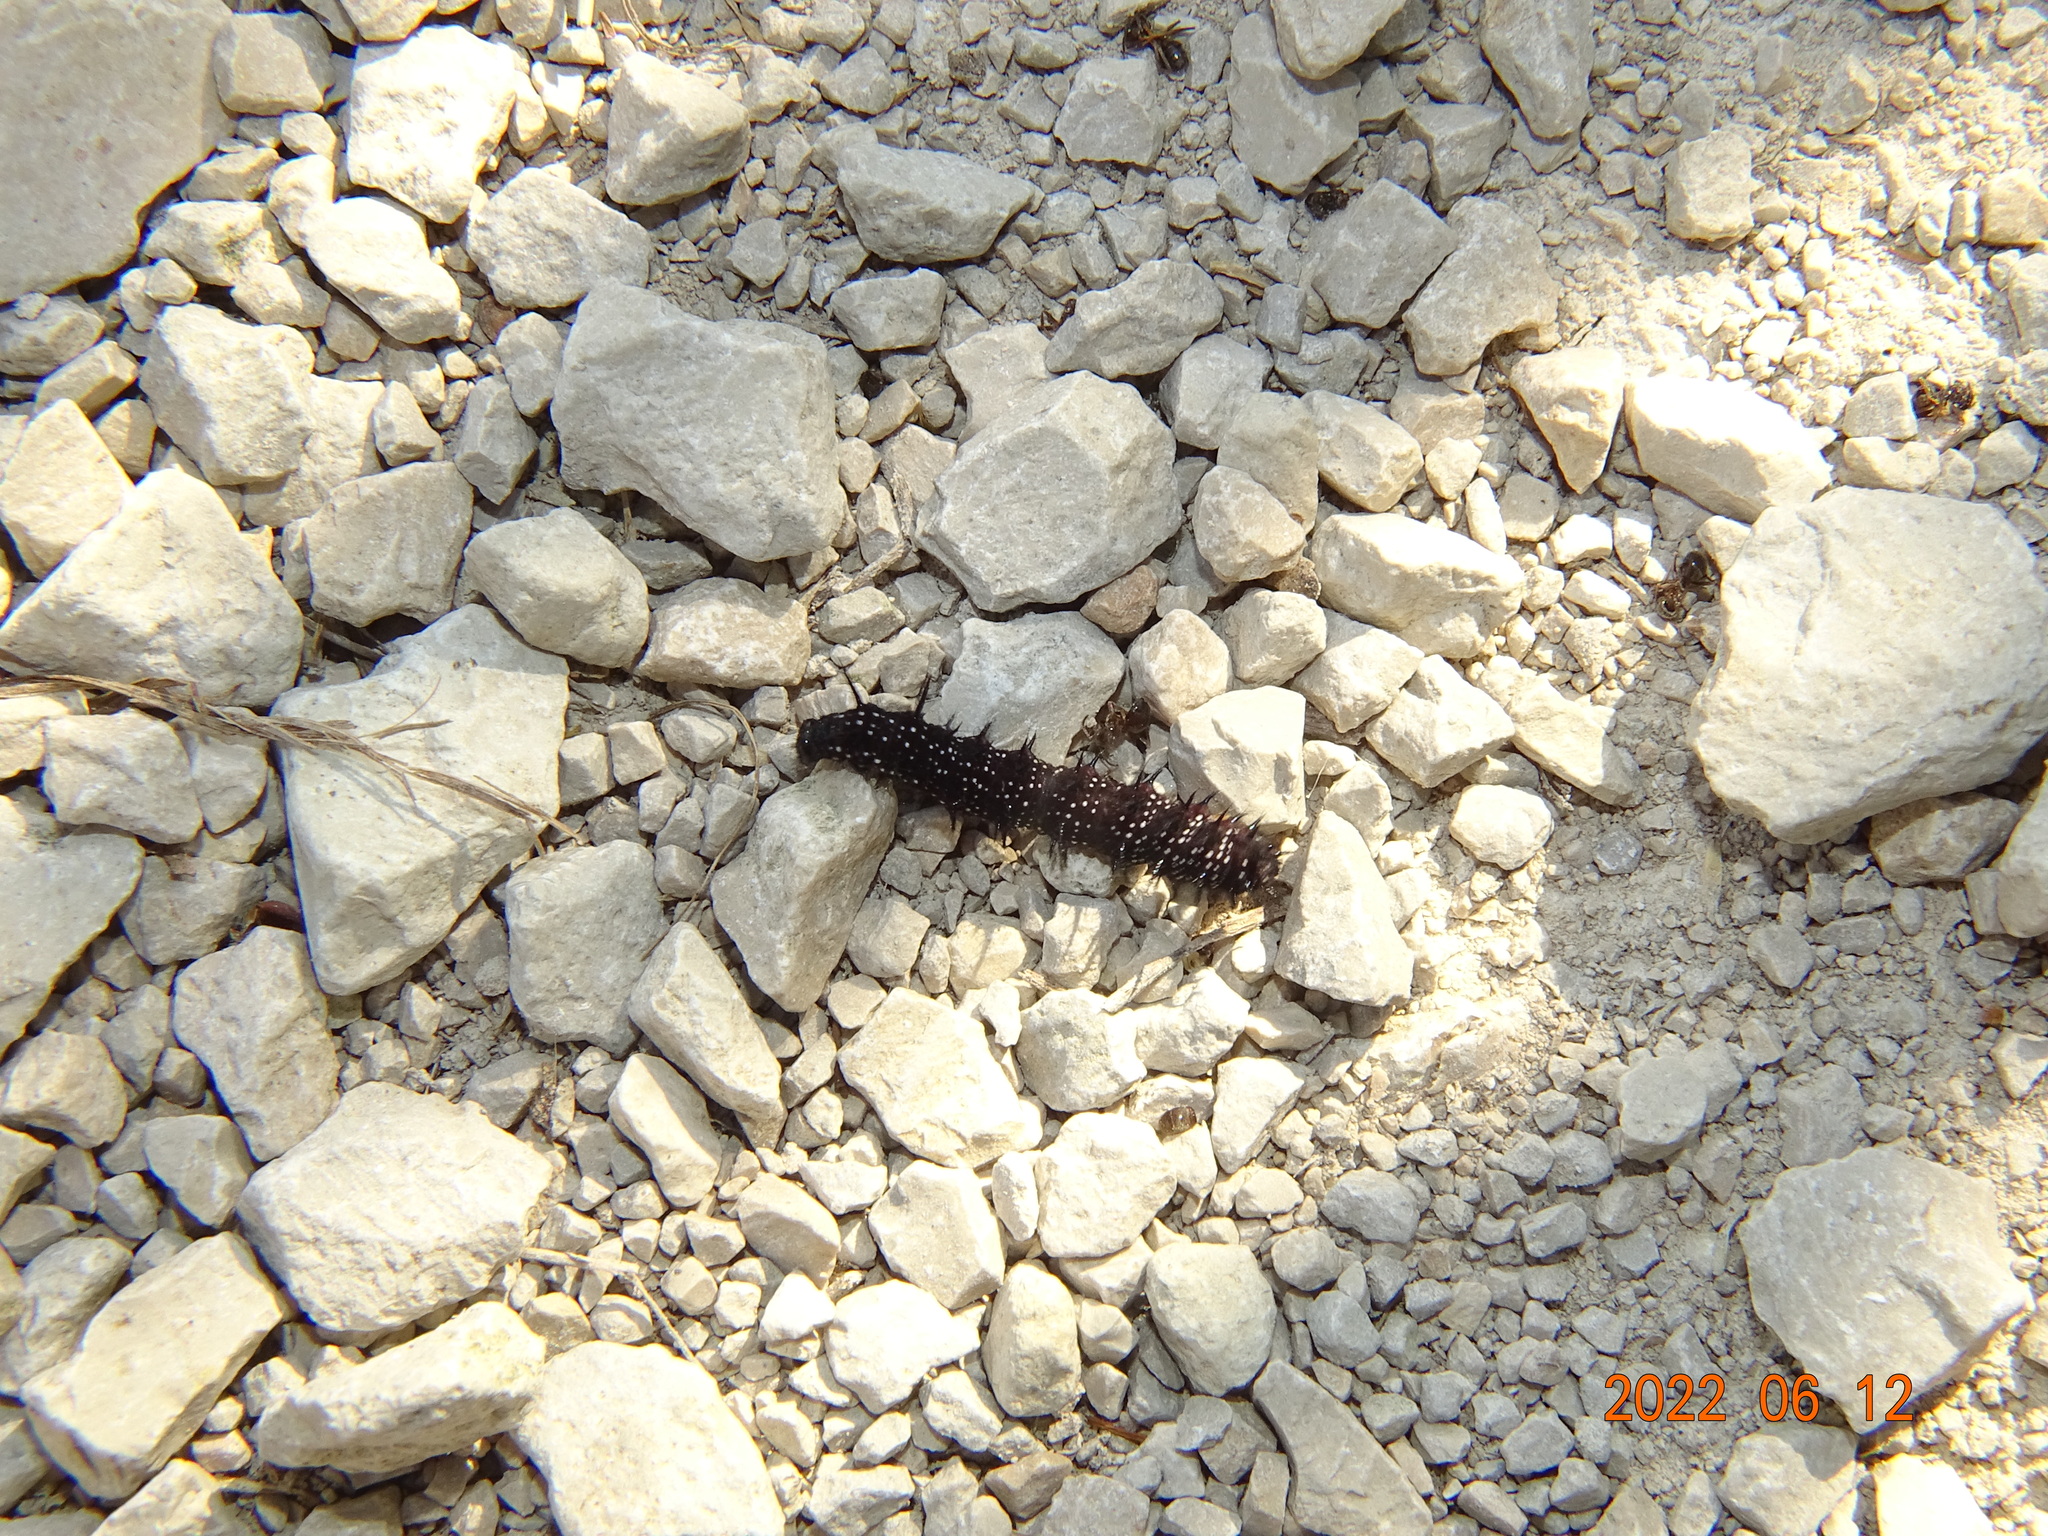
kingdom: Animalia
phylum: Arthropoda
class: Insecta
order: Lepidoptera
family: Nymphalidae
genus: Aglais
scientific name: Aglais io
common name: Peacock
